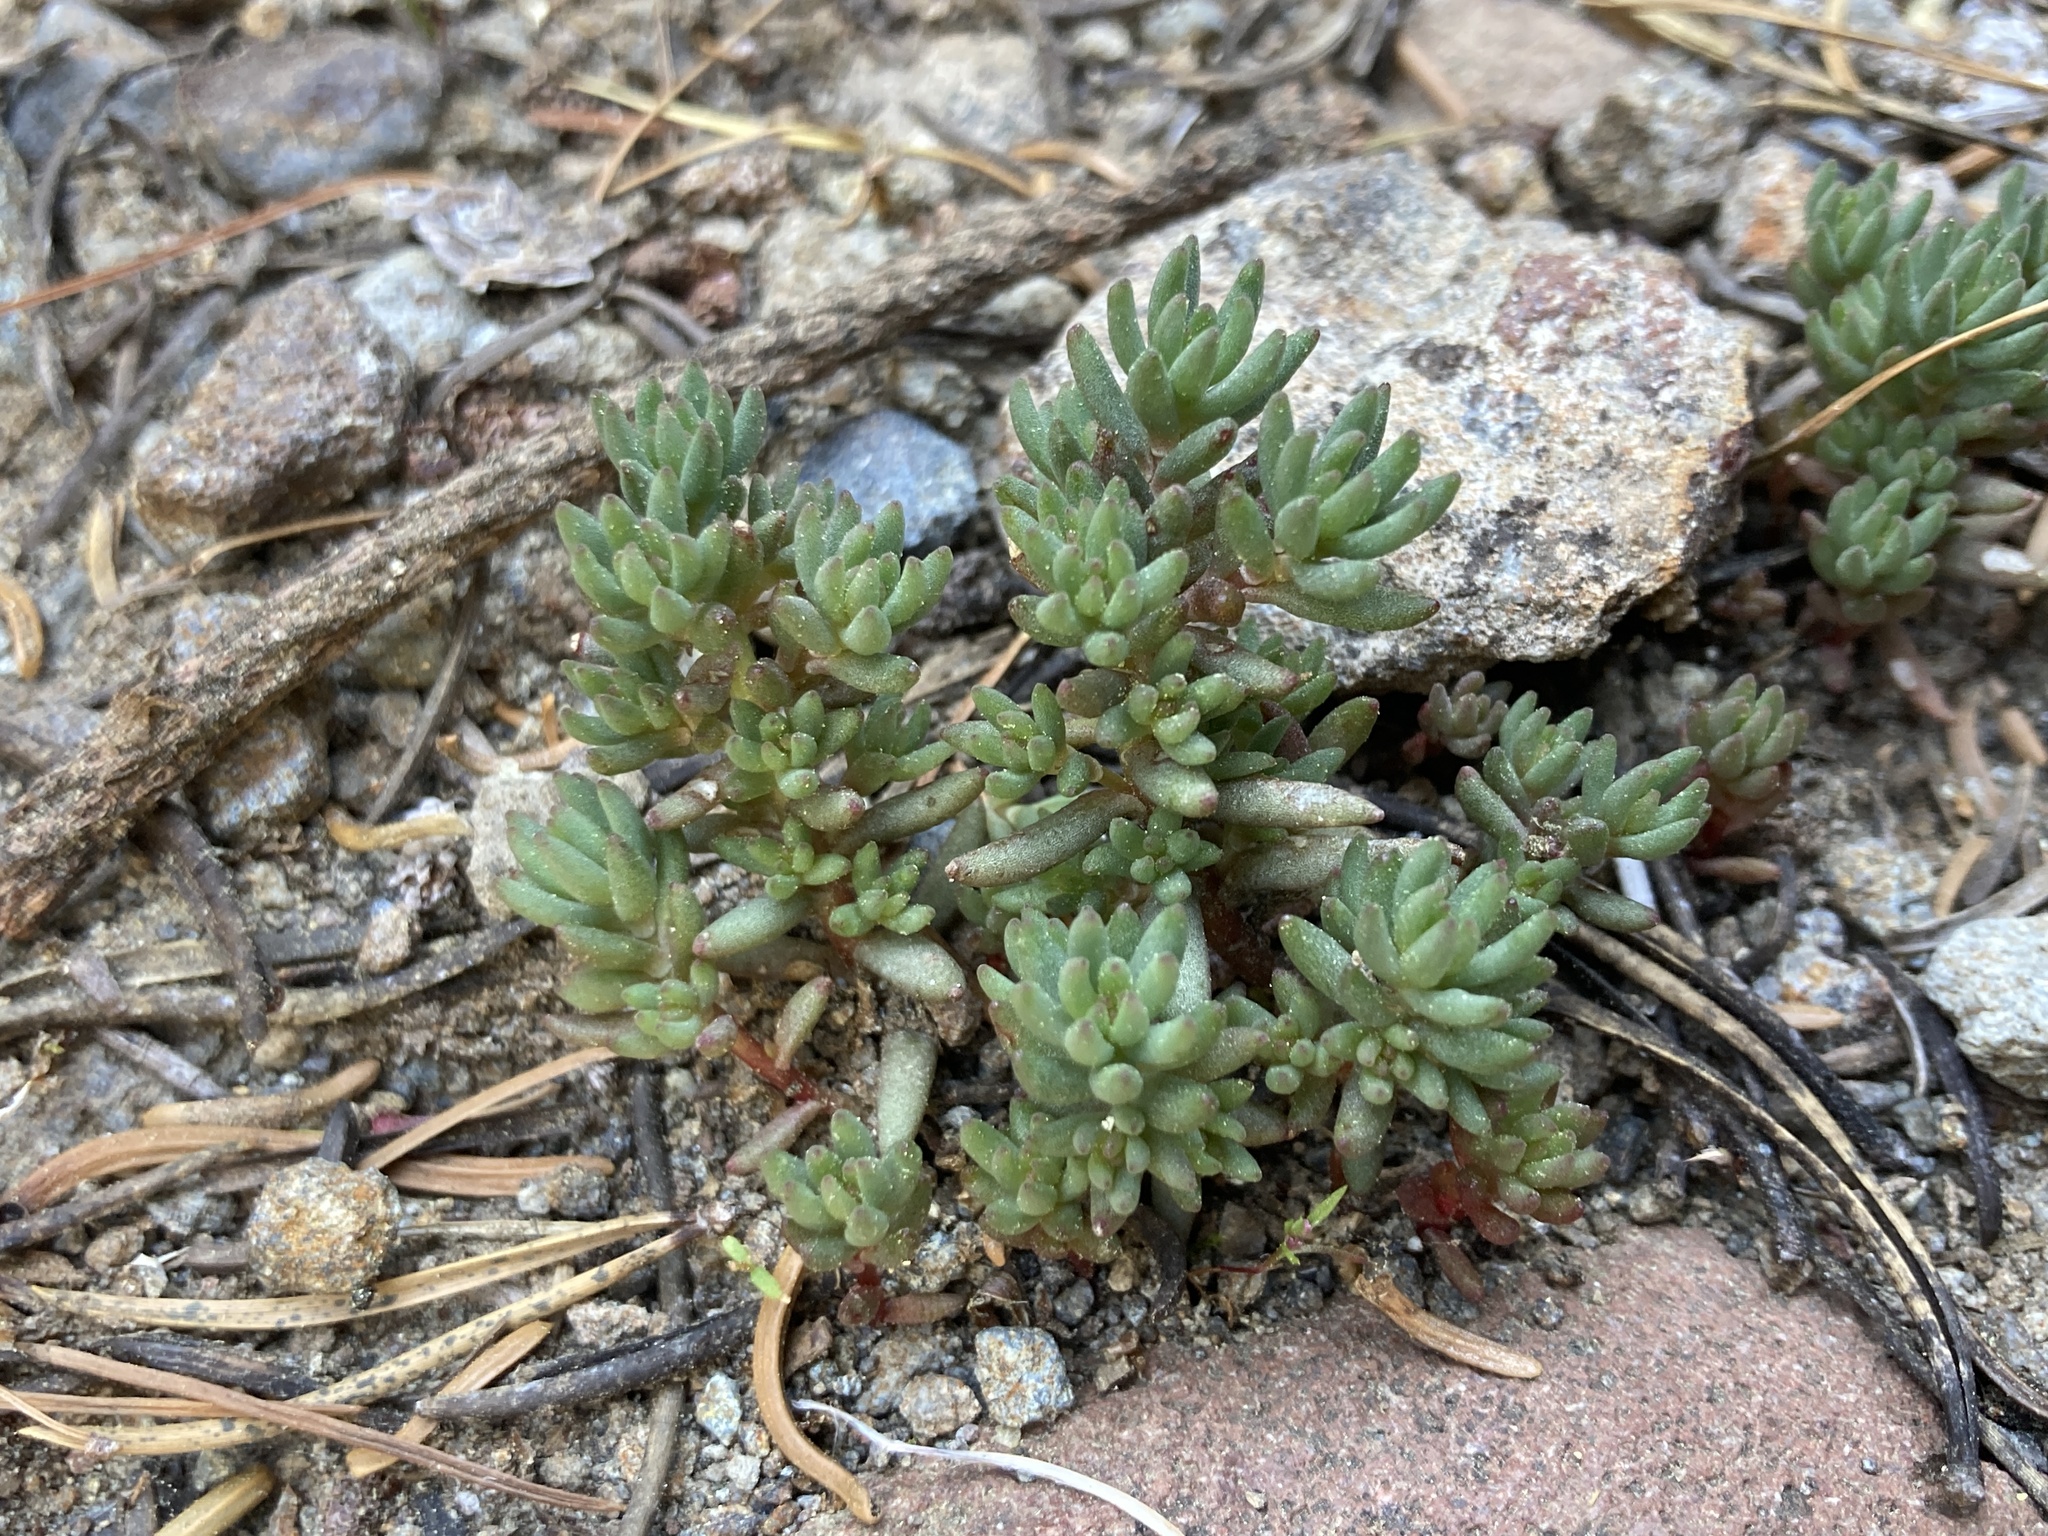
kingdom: Plantae
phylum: Tracheophyta
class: Magnoliopsida
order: Saxifragales
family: Crassulaceae
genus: Sedum
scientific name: Sedum lanceolatum
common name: Common stonecrop
